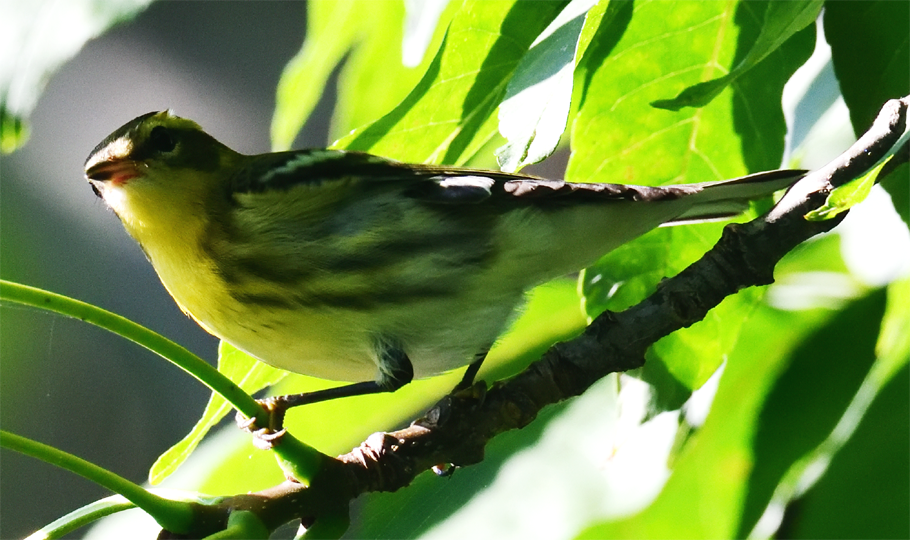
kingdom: Animalia
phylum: Chordata
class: Aves
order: Passeriformes
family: Parulidae
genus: Setophaga
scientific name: Setophaga fusca
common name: Blackburnian warbler
